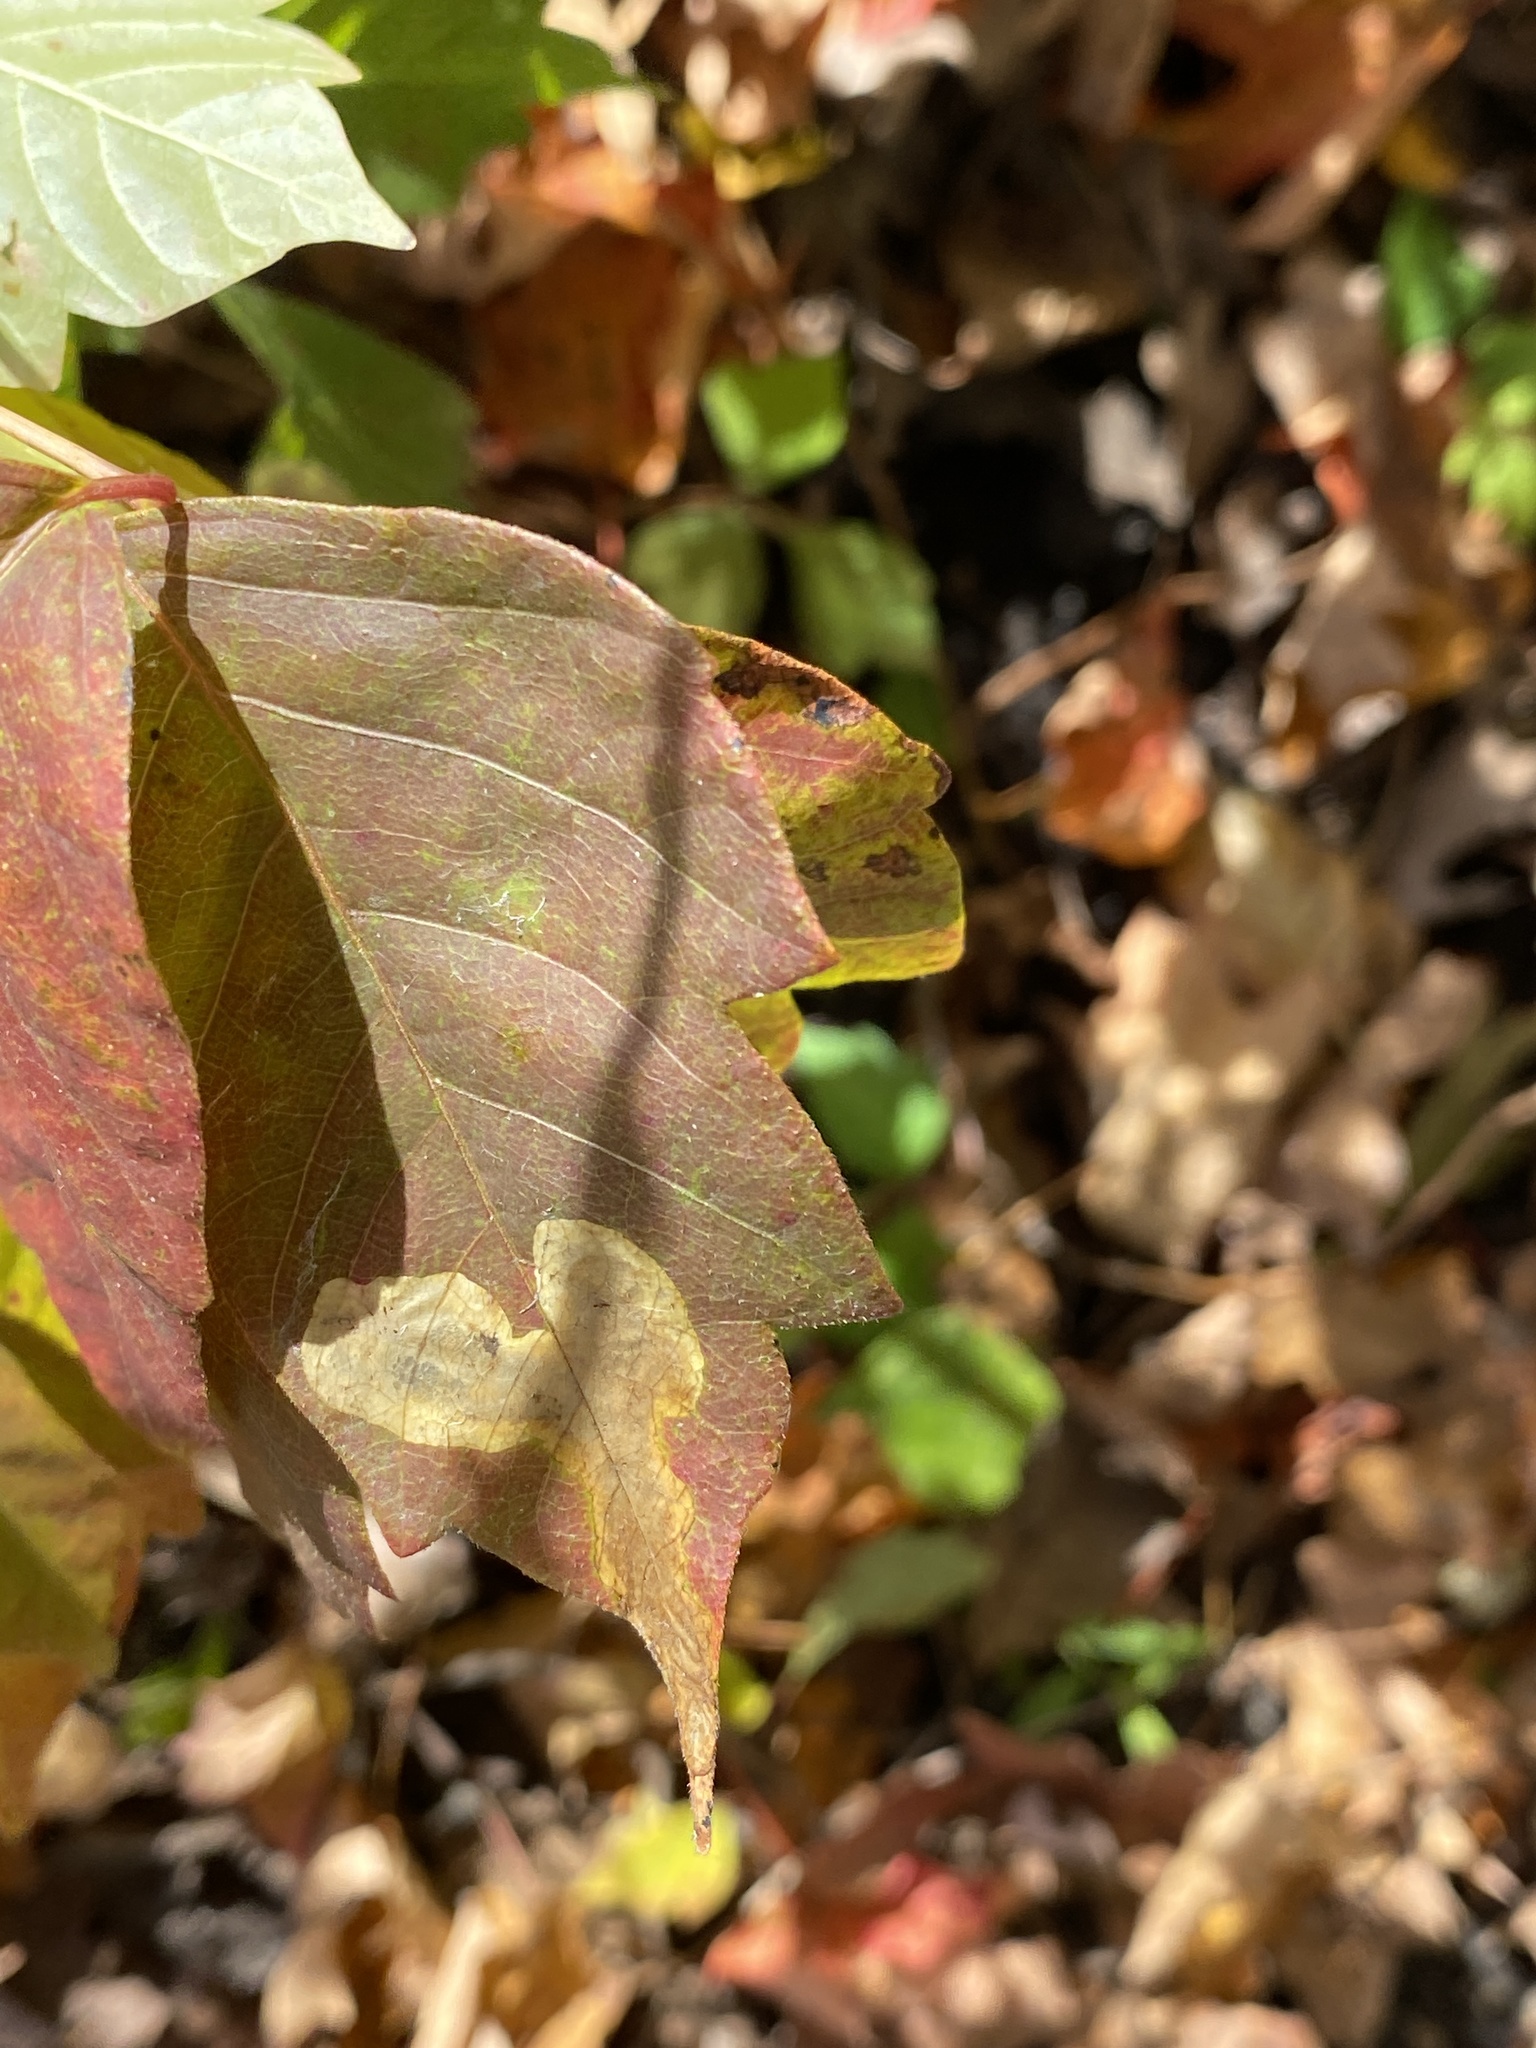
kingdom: Animalia
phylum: Arthropoda
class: Insecta
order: Lepidoptera
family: Gracillariidae
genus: Cameraria
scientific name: Cameraria guttifinitella
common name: Poison ivy leaf-miner moth
